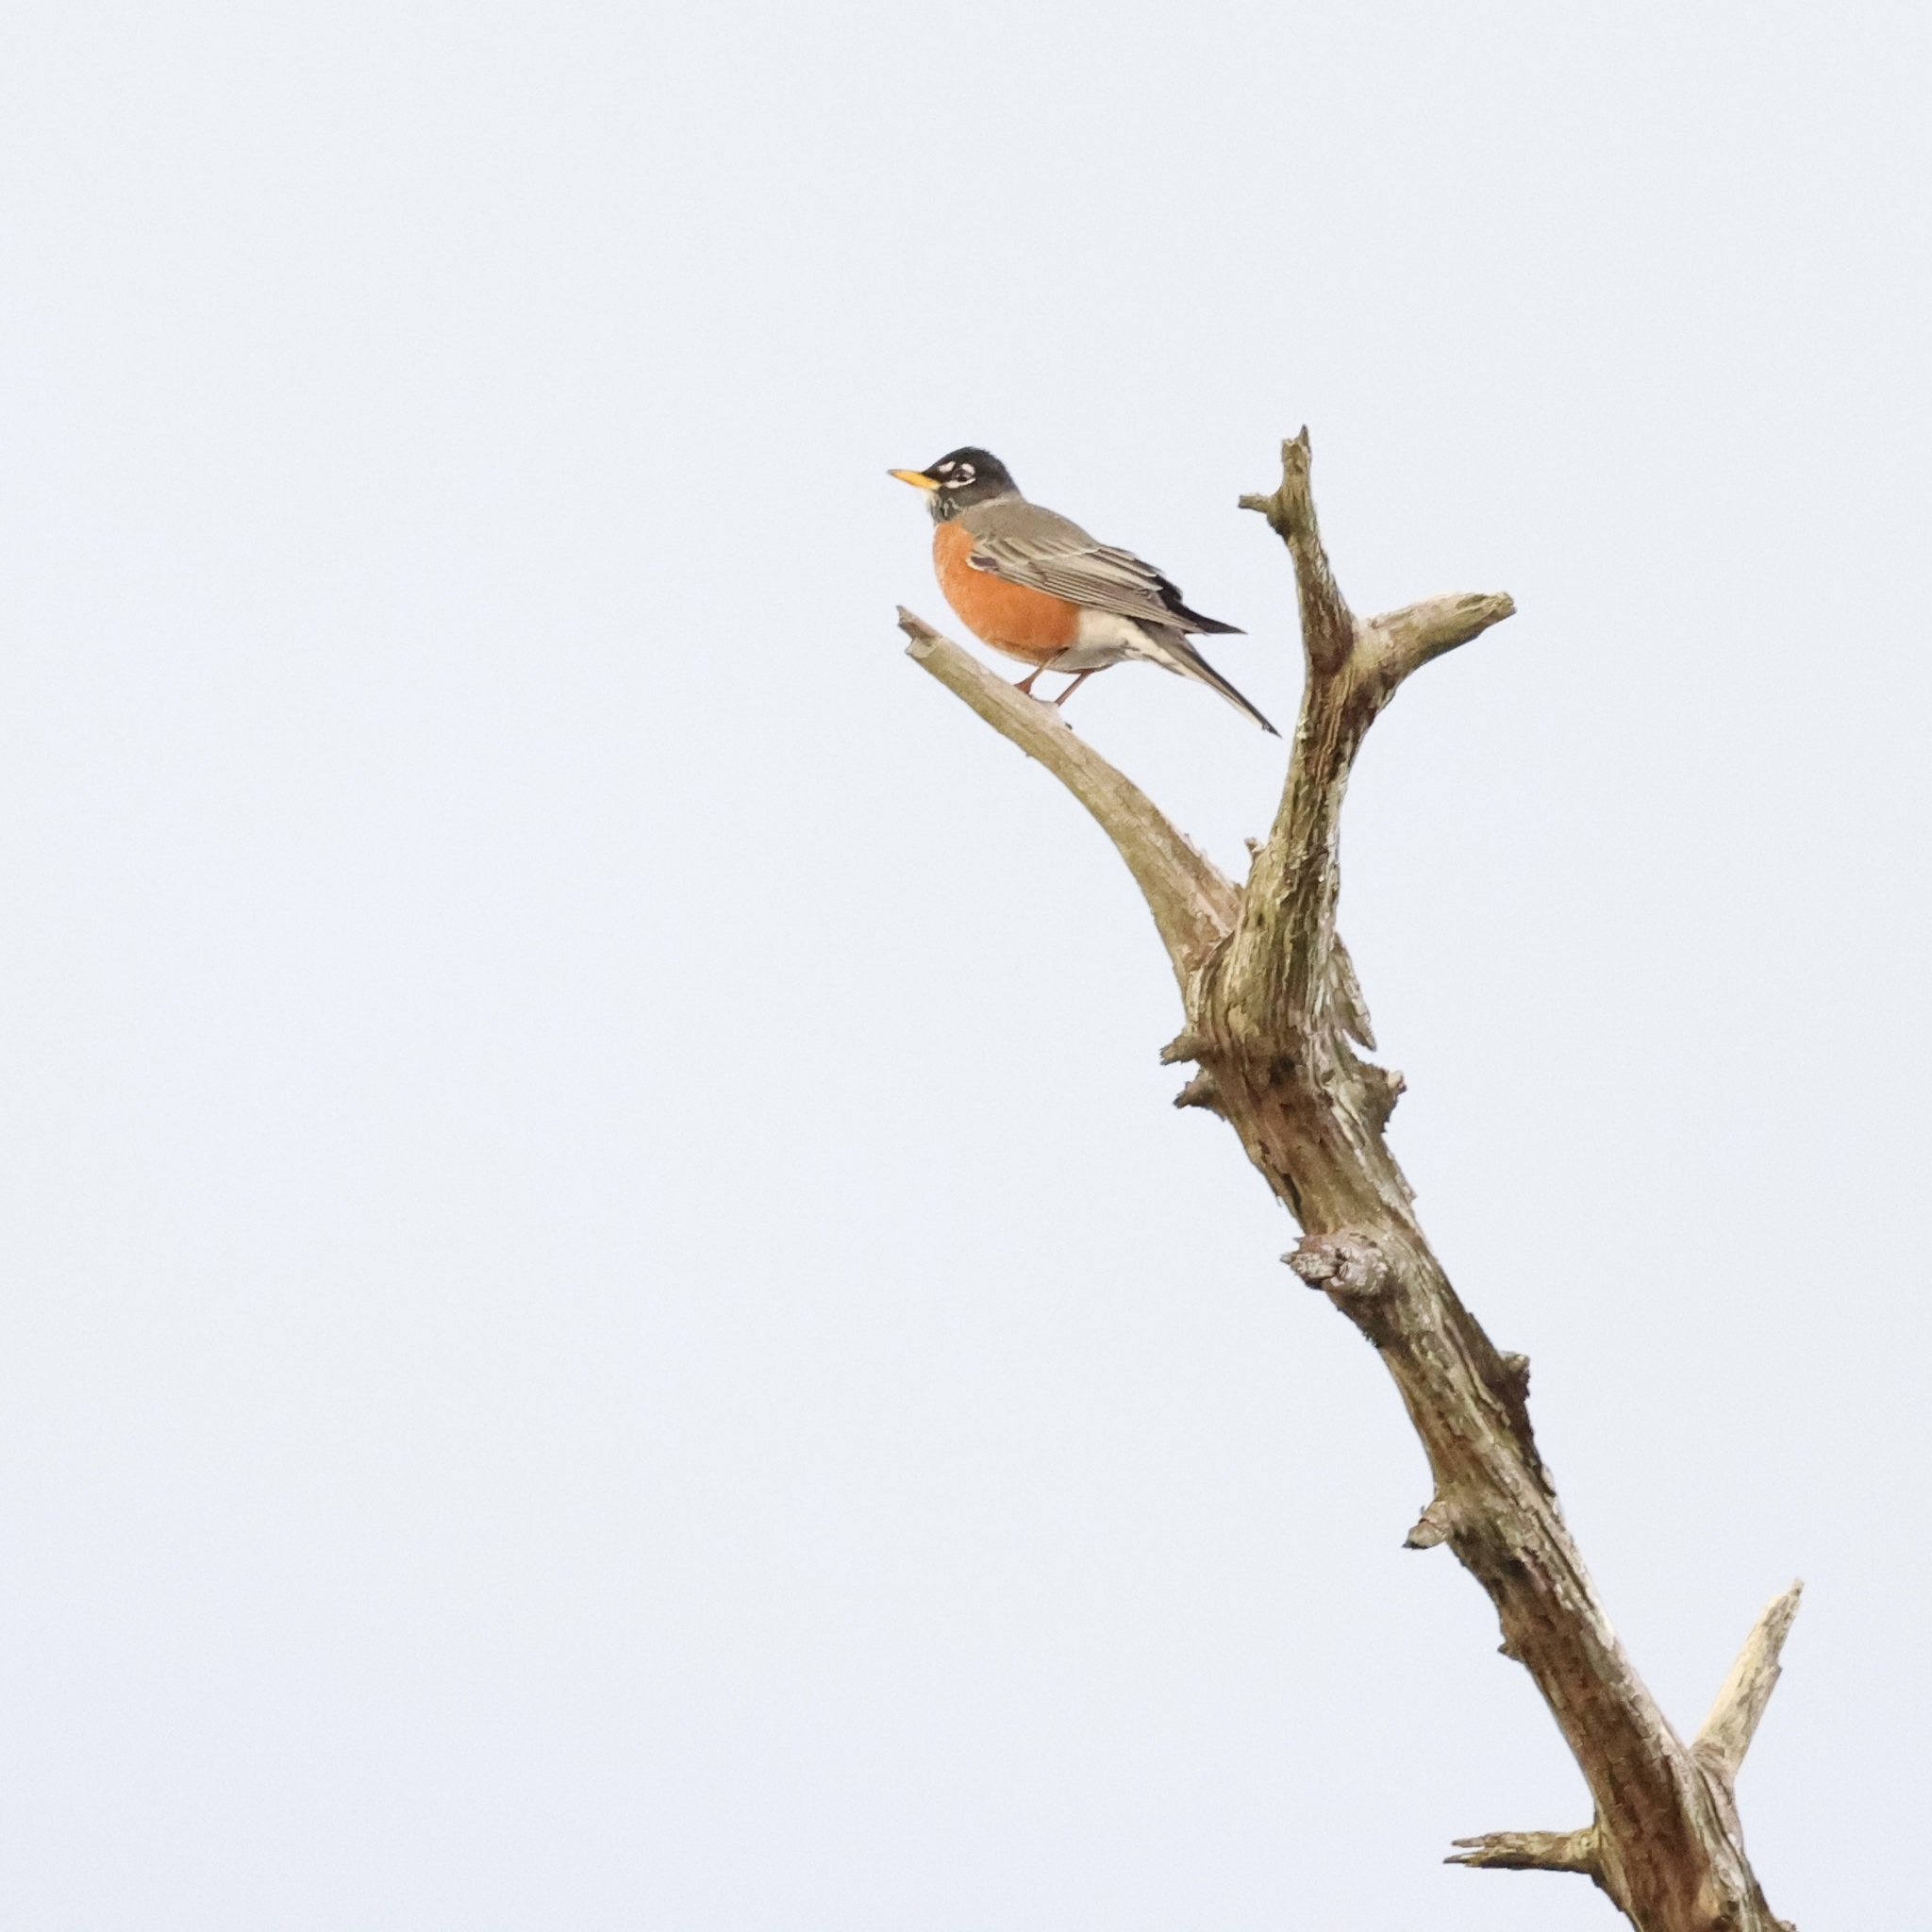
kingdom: Animalia
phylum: Chordata
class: Aves
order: Passeriformes
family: Turdidae
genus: Turdus
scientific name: Turdus migratorius
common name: American robin
